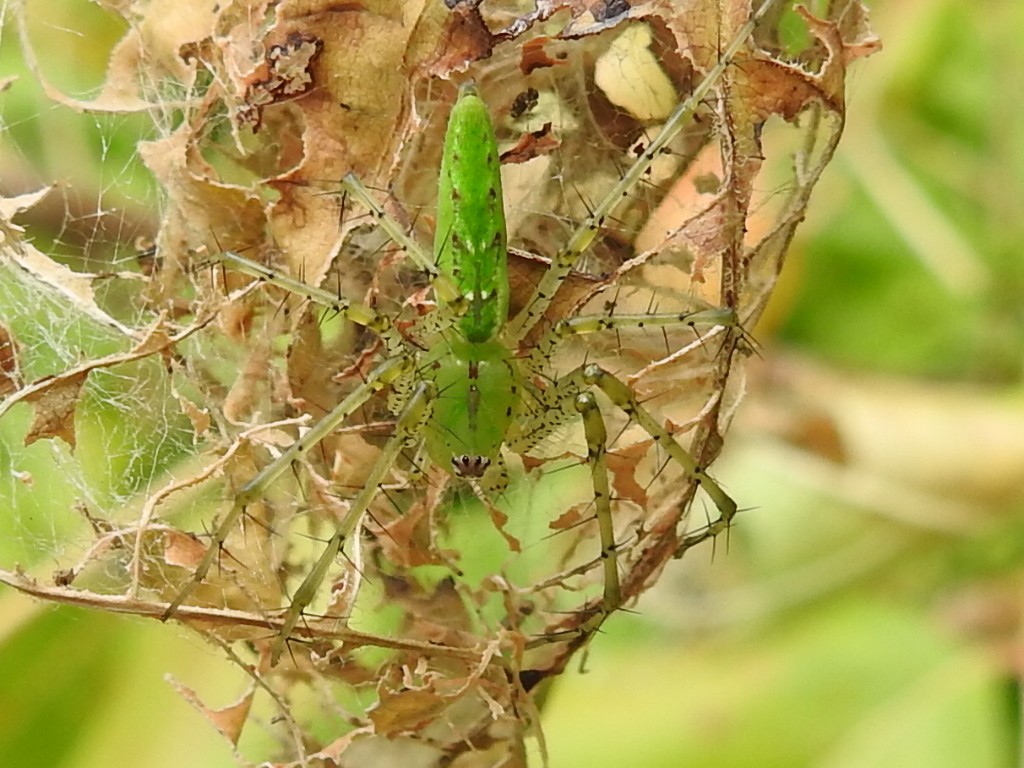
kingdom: Animalia
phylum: Arthropoda
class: Arachnida
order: Araneae
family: Oxyopidae
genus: Peucetia
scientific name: Peucetia viridans
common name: Lynx spiders
